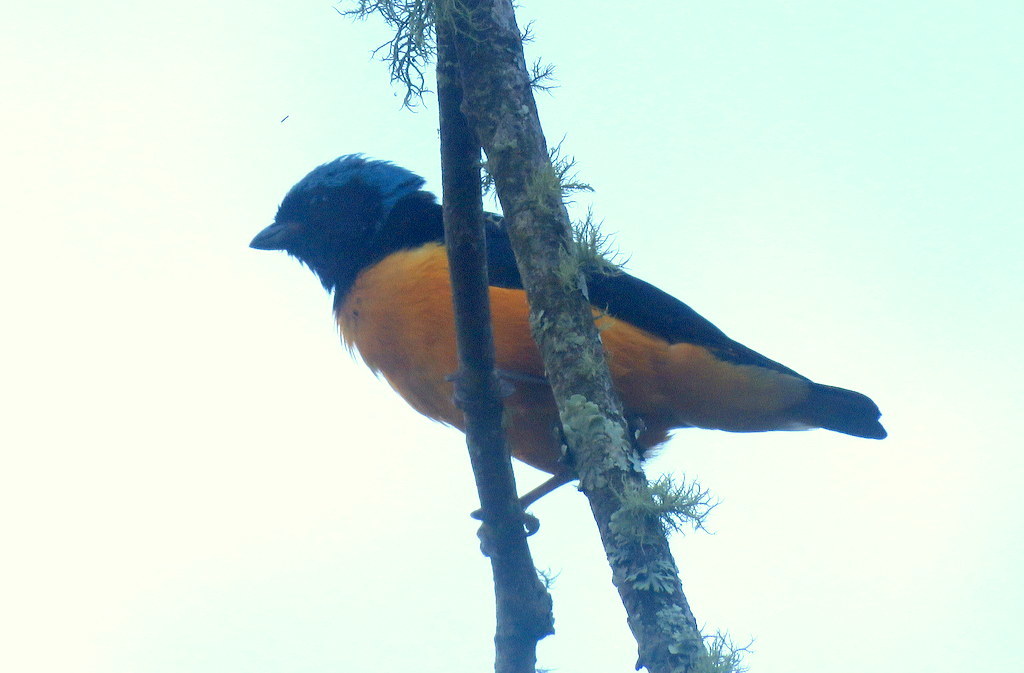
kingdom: Animalia
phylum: Chordata
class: Aves
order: Passeriformes
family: Fringillidae
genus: Euphonia
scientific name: Euphonia cyanocephala
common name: Golden-rumped euphonia
